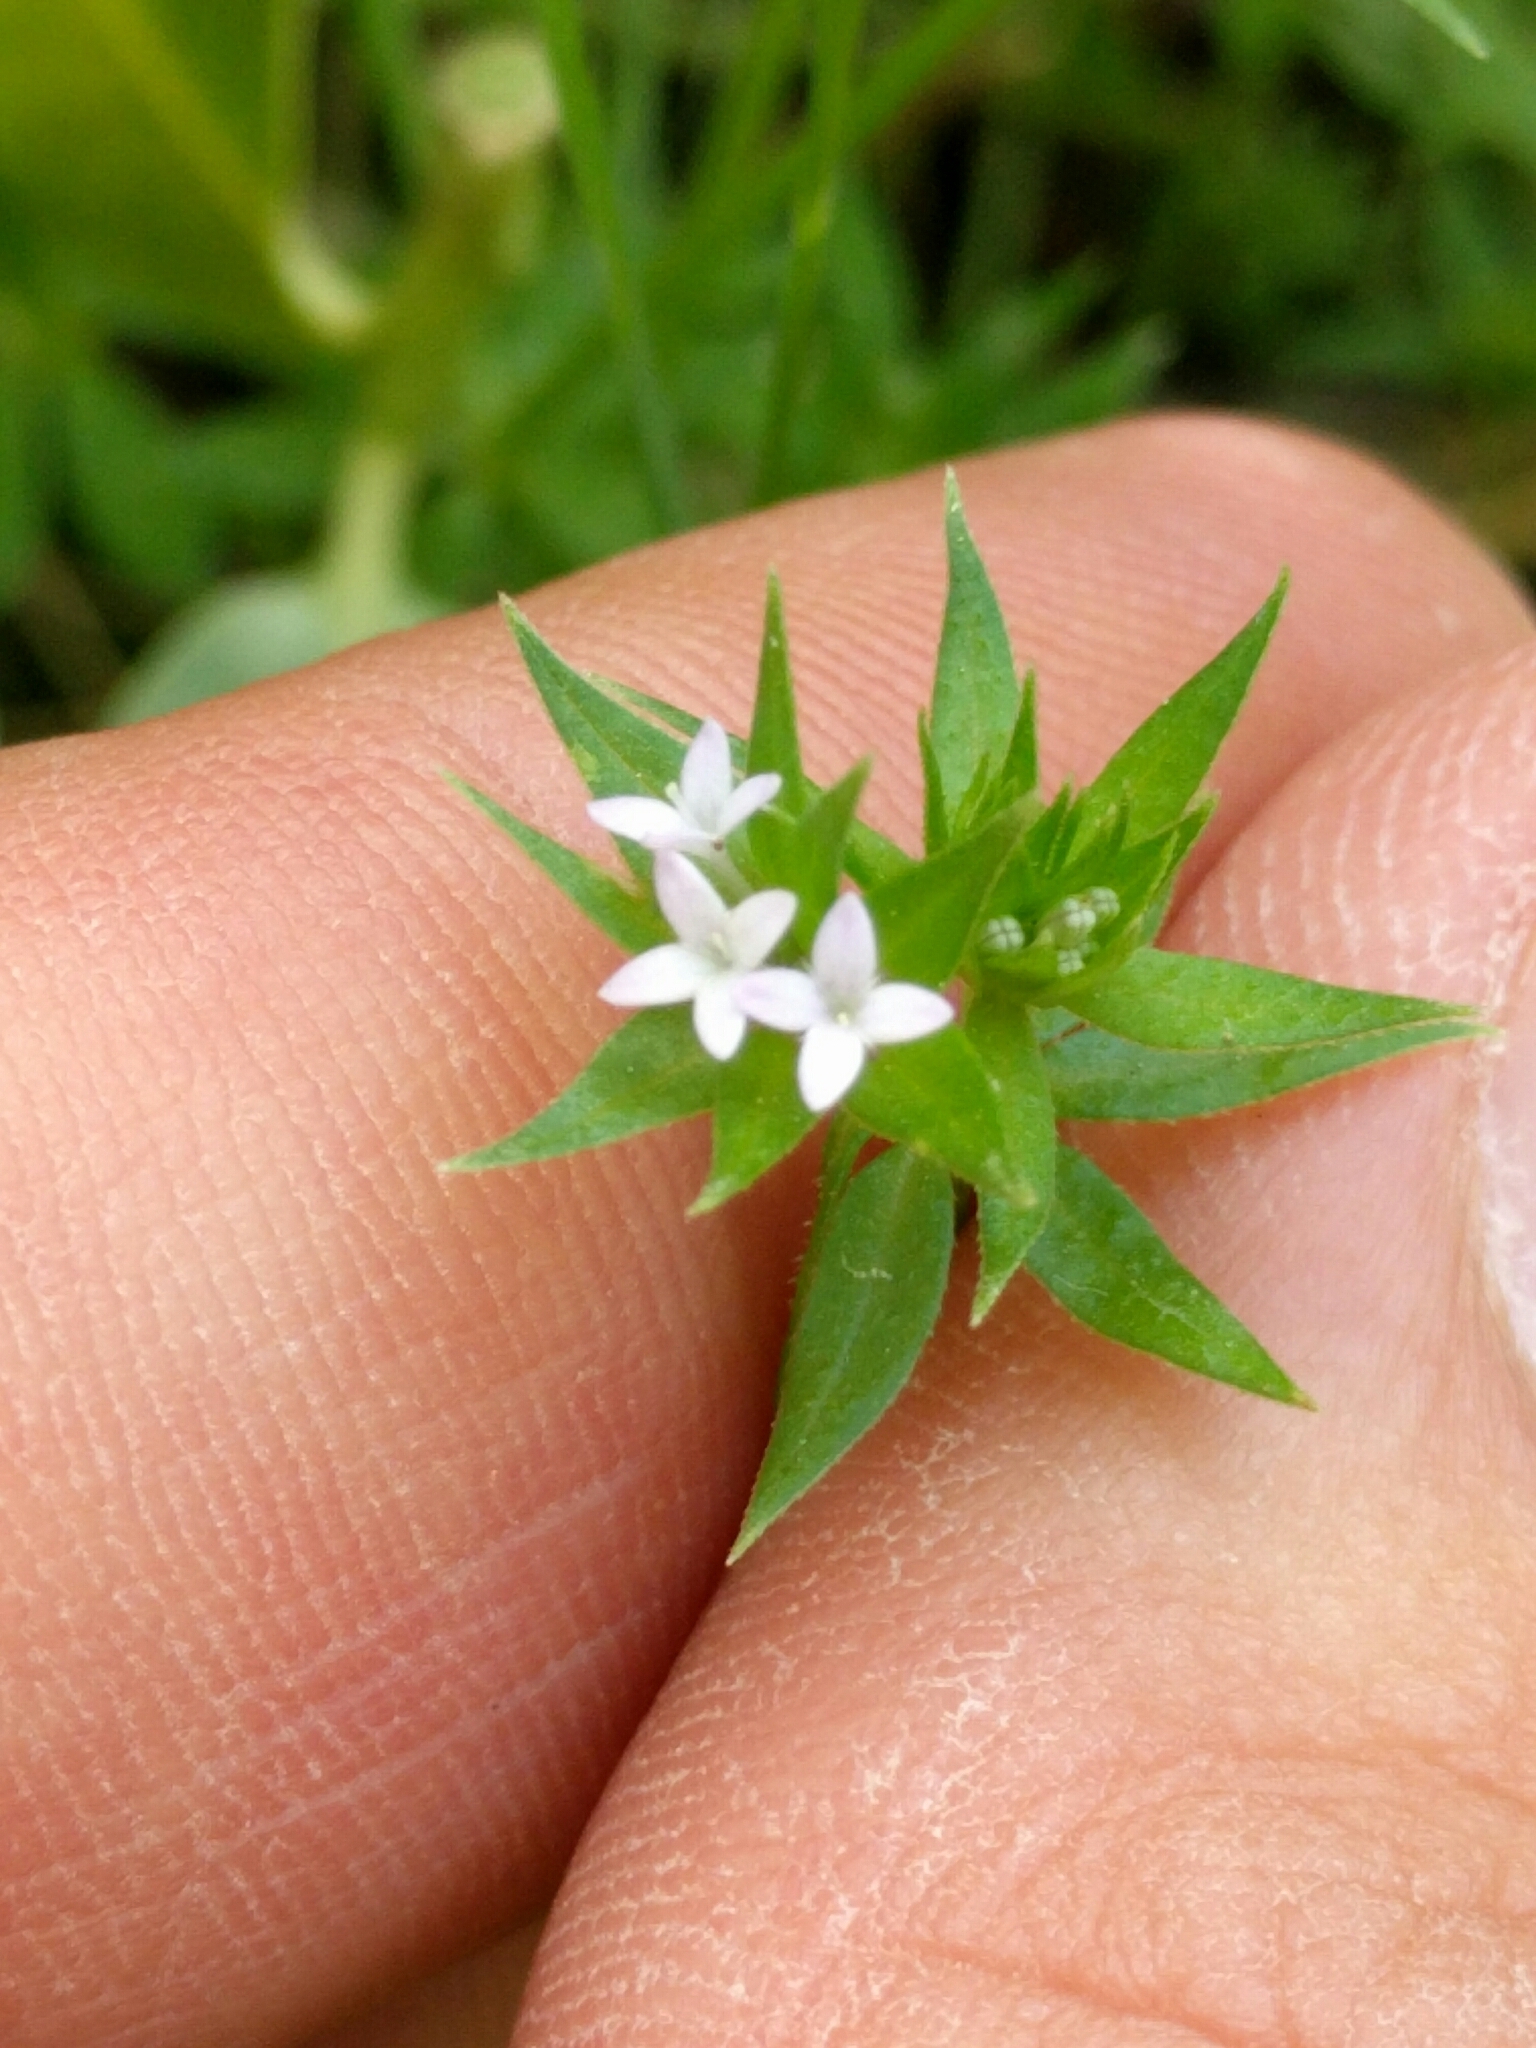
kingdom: Plantae
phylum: Tracheophyta
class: Magnoliopsida
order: Gentianales
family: Rubiaceae
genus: Sherardia
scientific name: Sherardia arvensis
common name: Field madder
